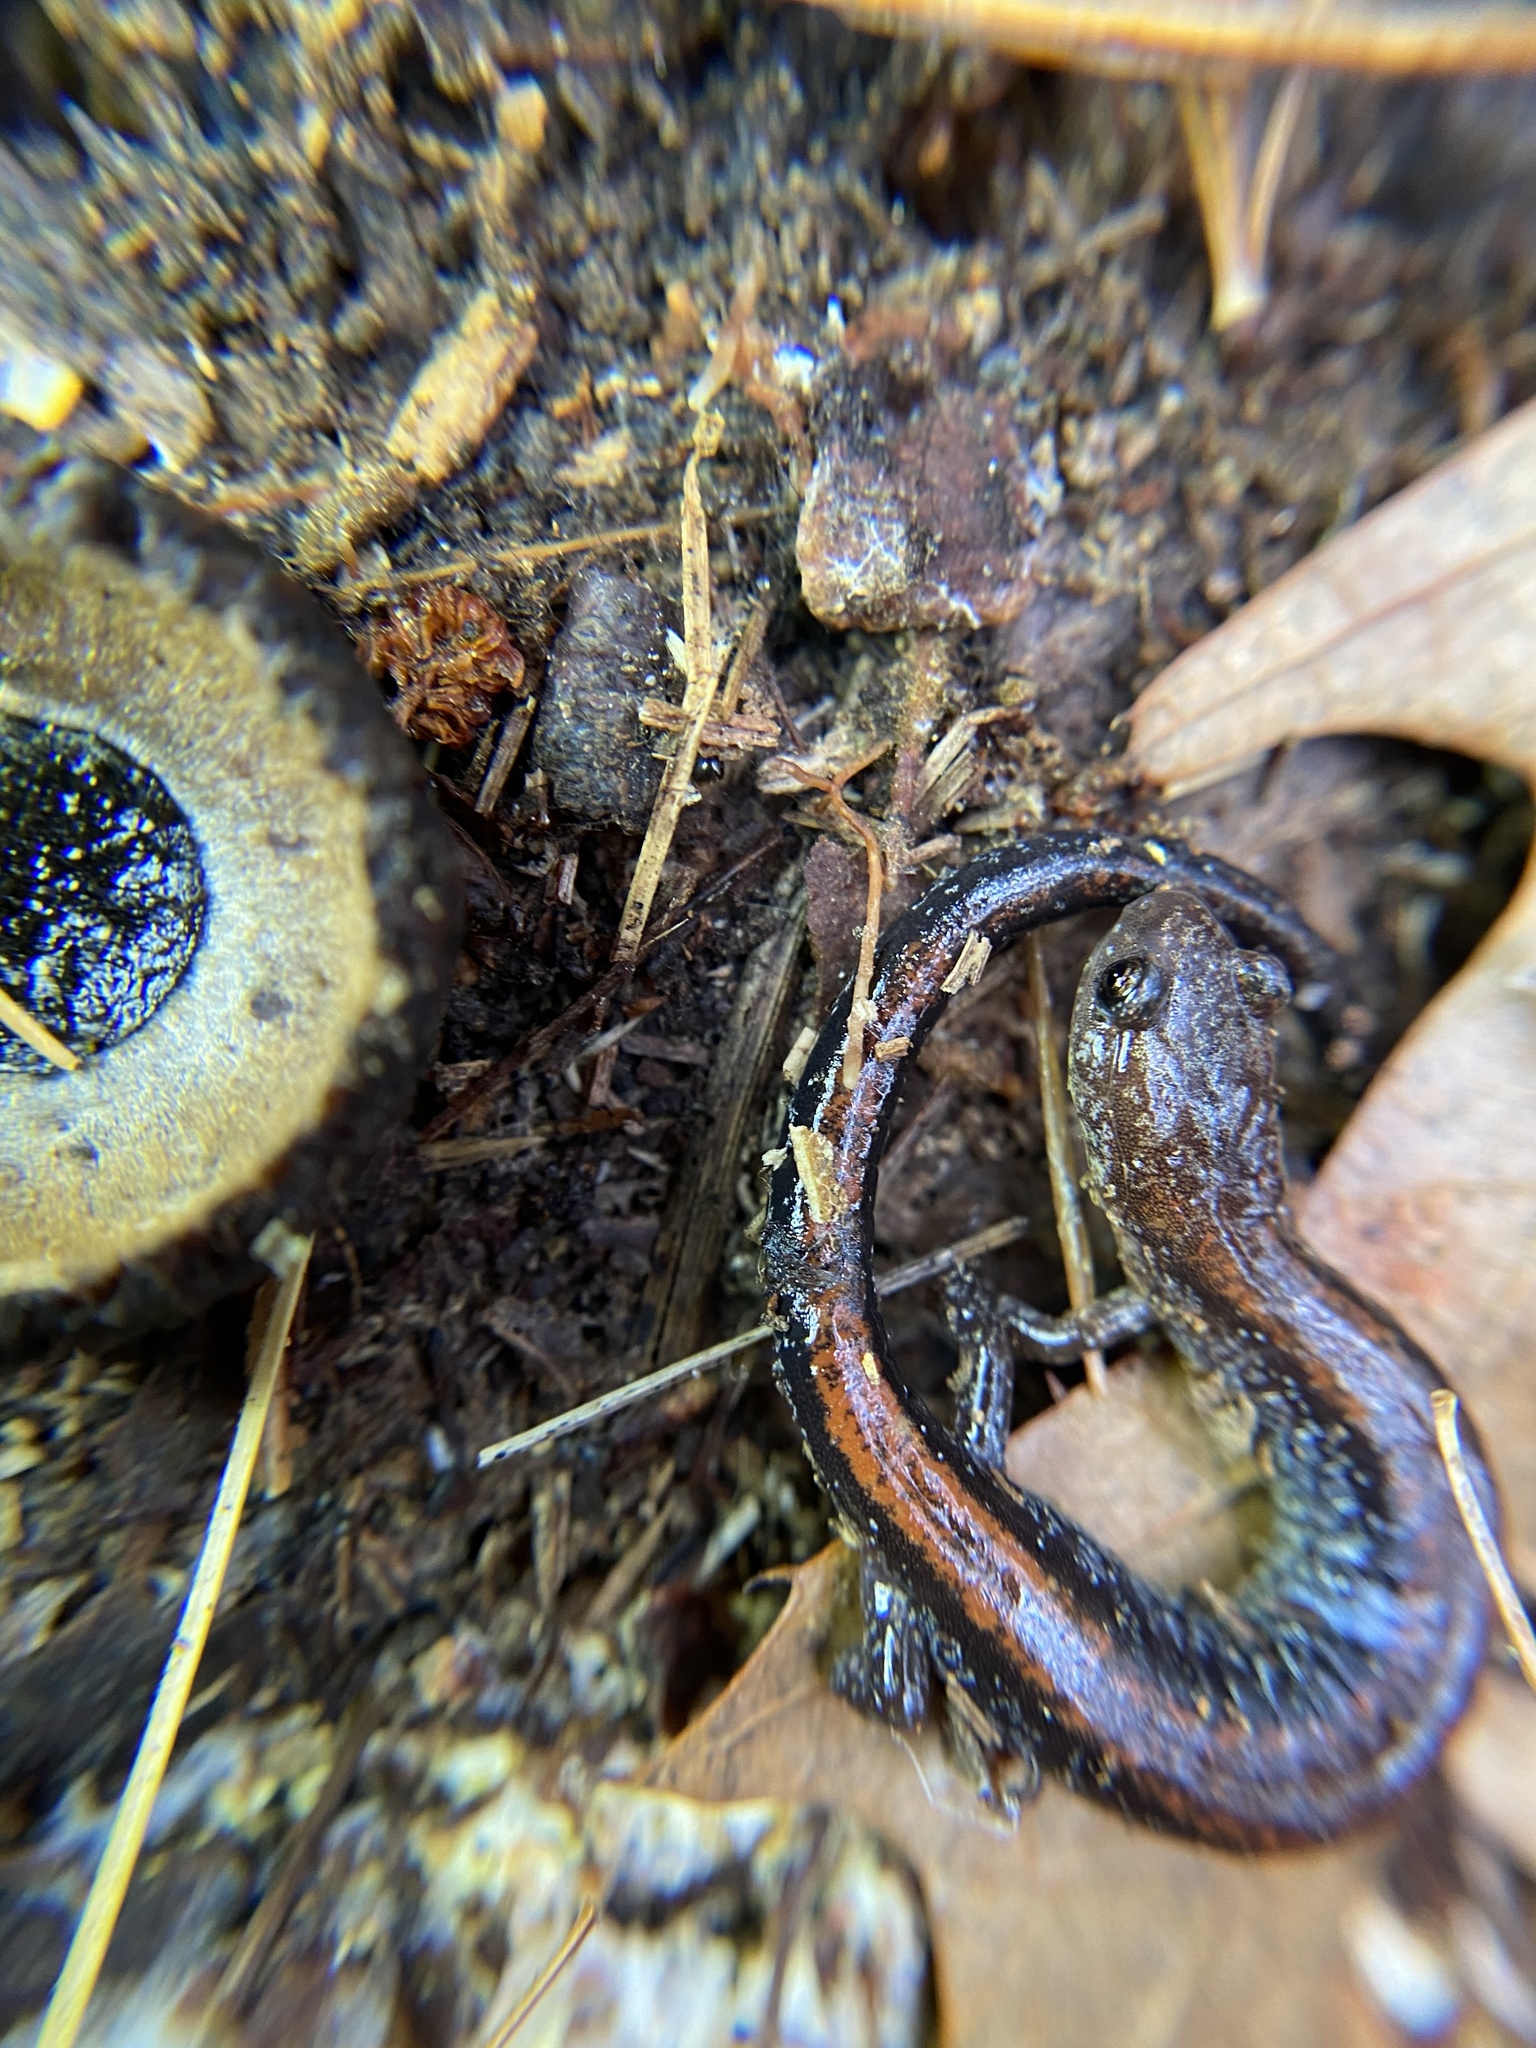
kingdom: Animalia
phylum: Chordata
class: Amphibia
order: Caudata
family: Plethodontidae
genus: Plethodon
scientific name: Plethodon cinereus
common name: Redback salamander
